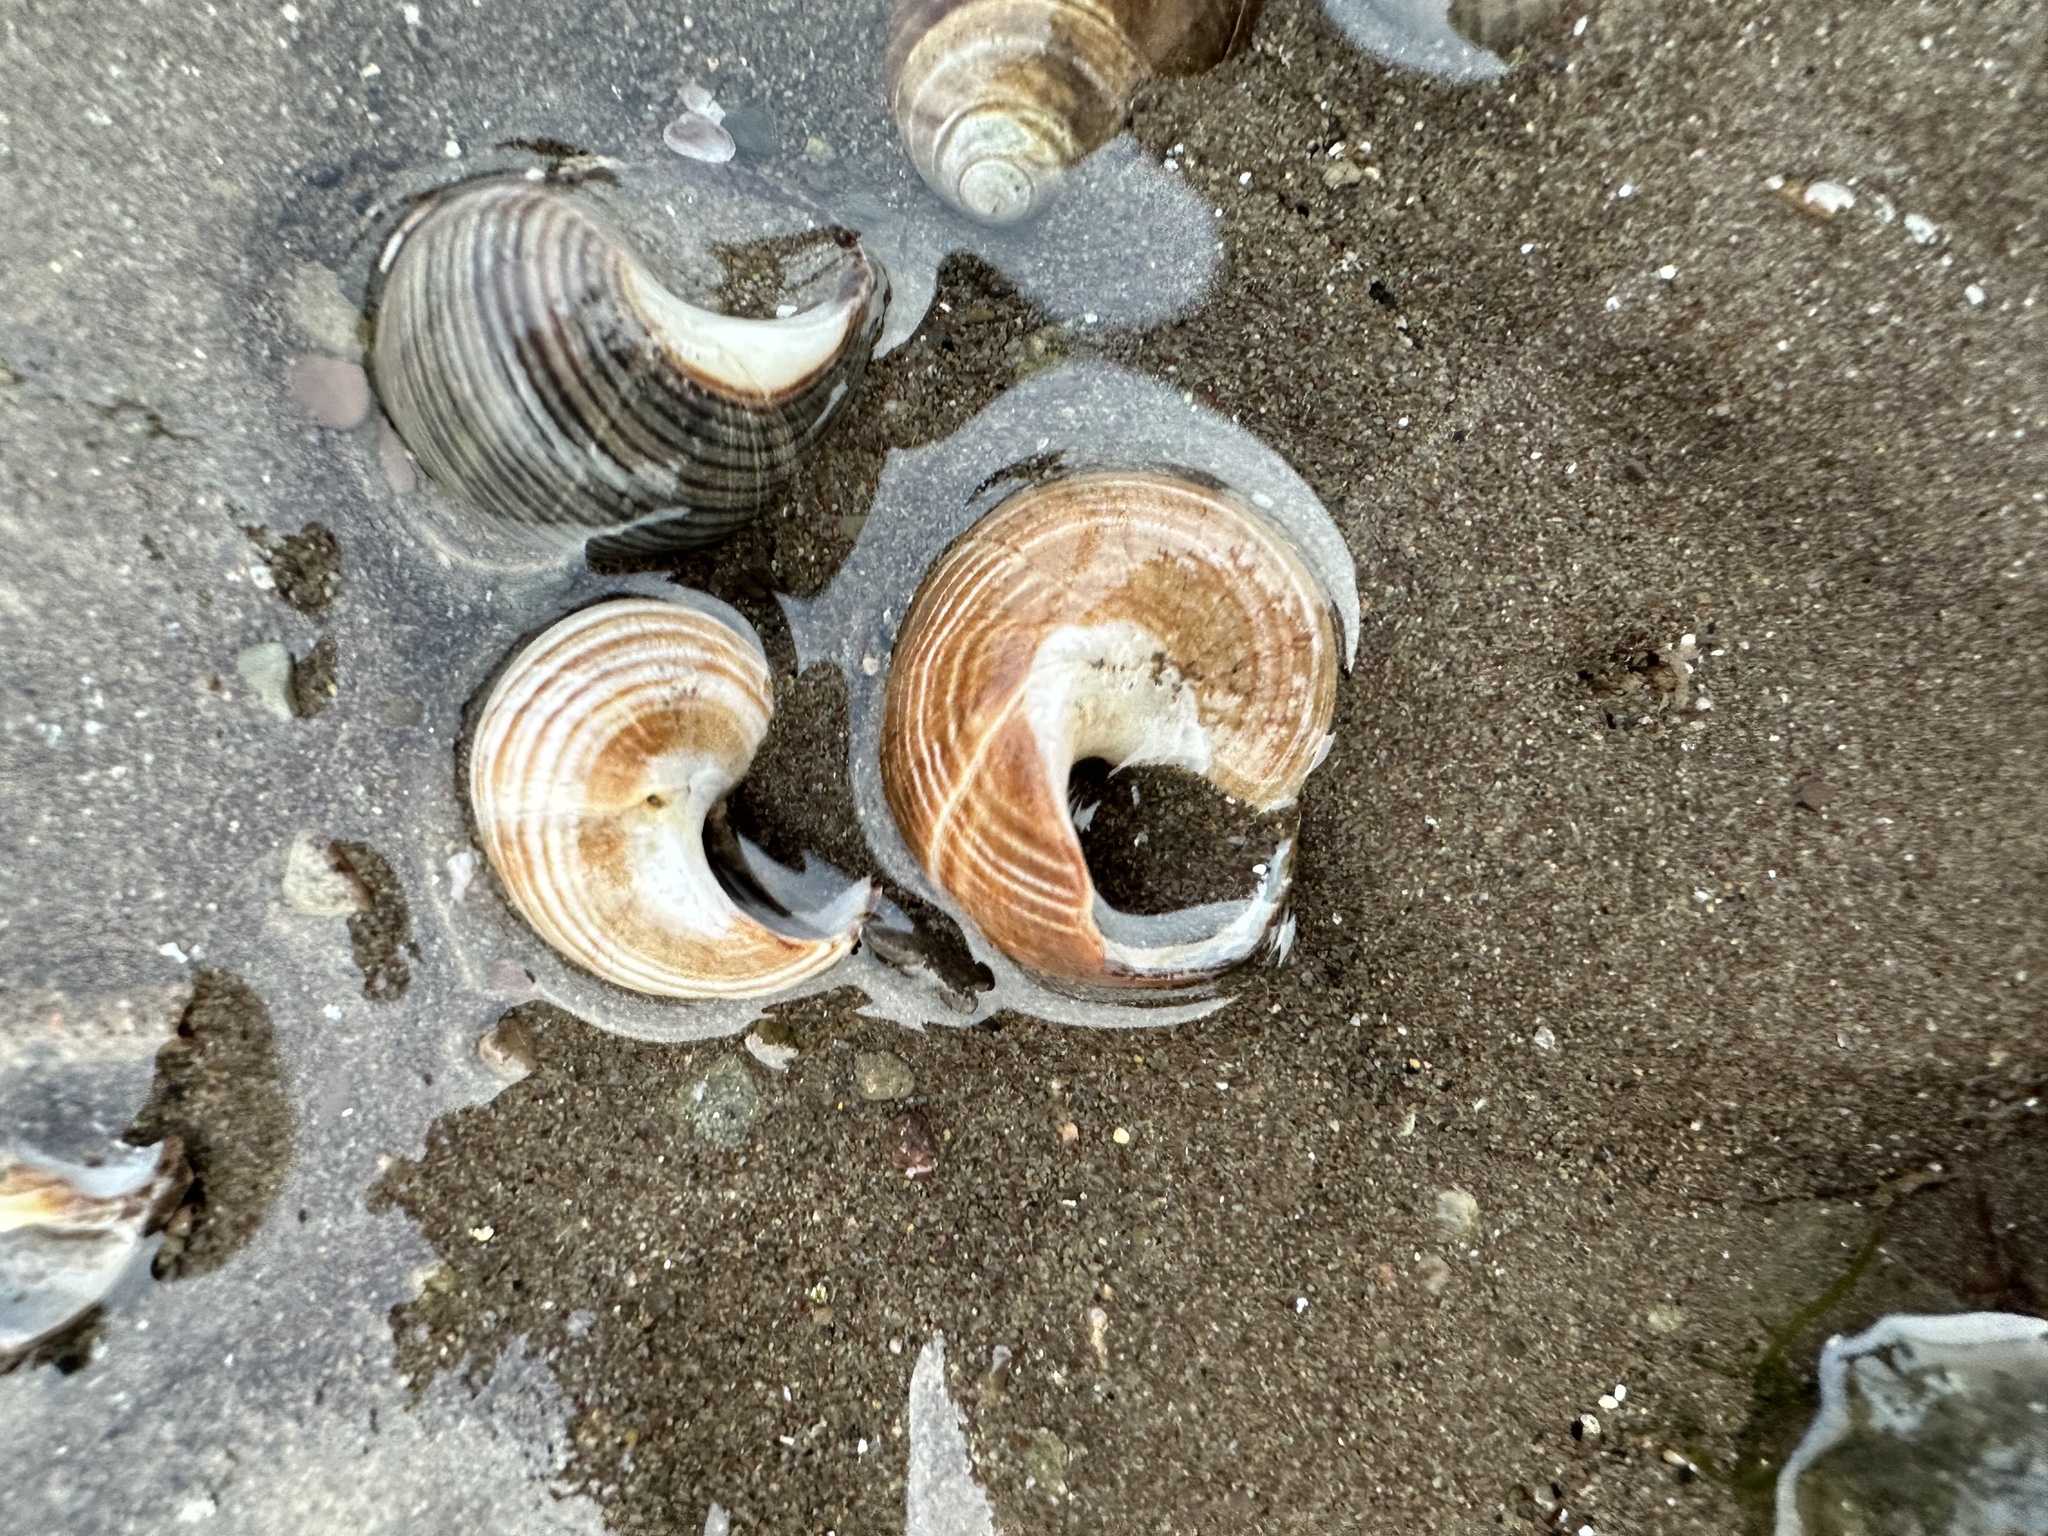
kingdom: Animalia
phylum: Mollusca
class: Gastropoda
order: Littorinimorpha
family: Littorinidae
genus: Littorina
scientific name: Littorina littorea
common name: Common periwinkle
